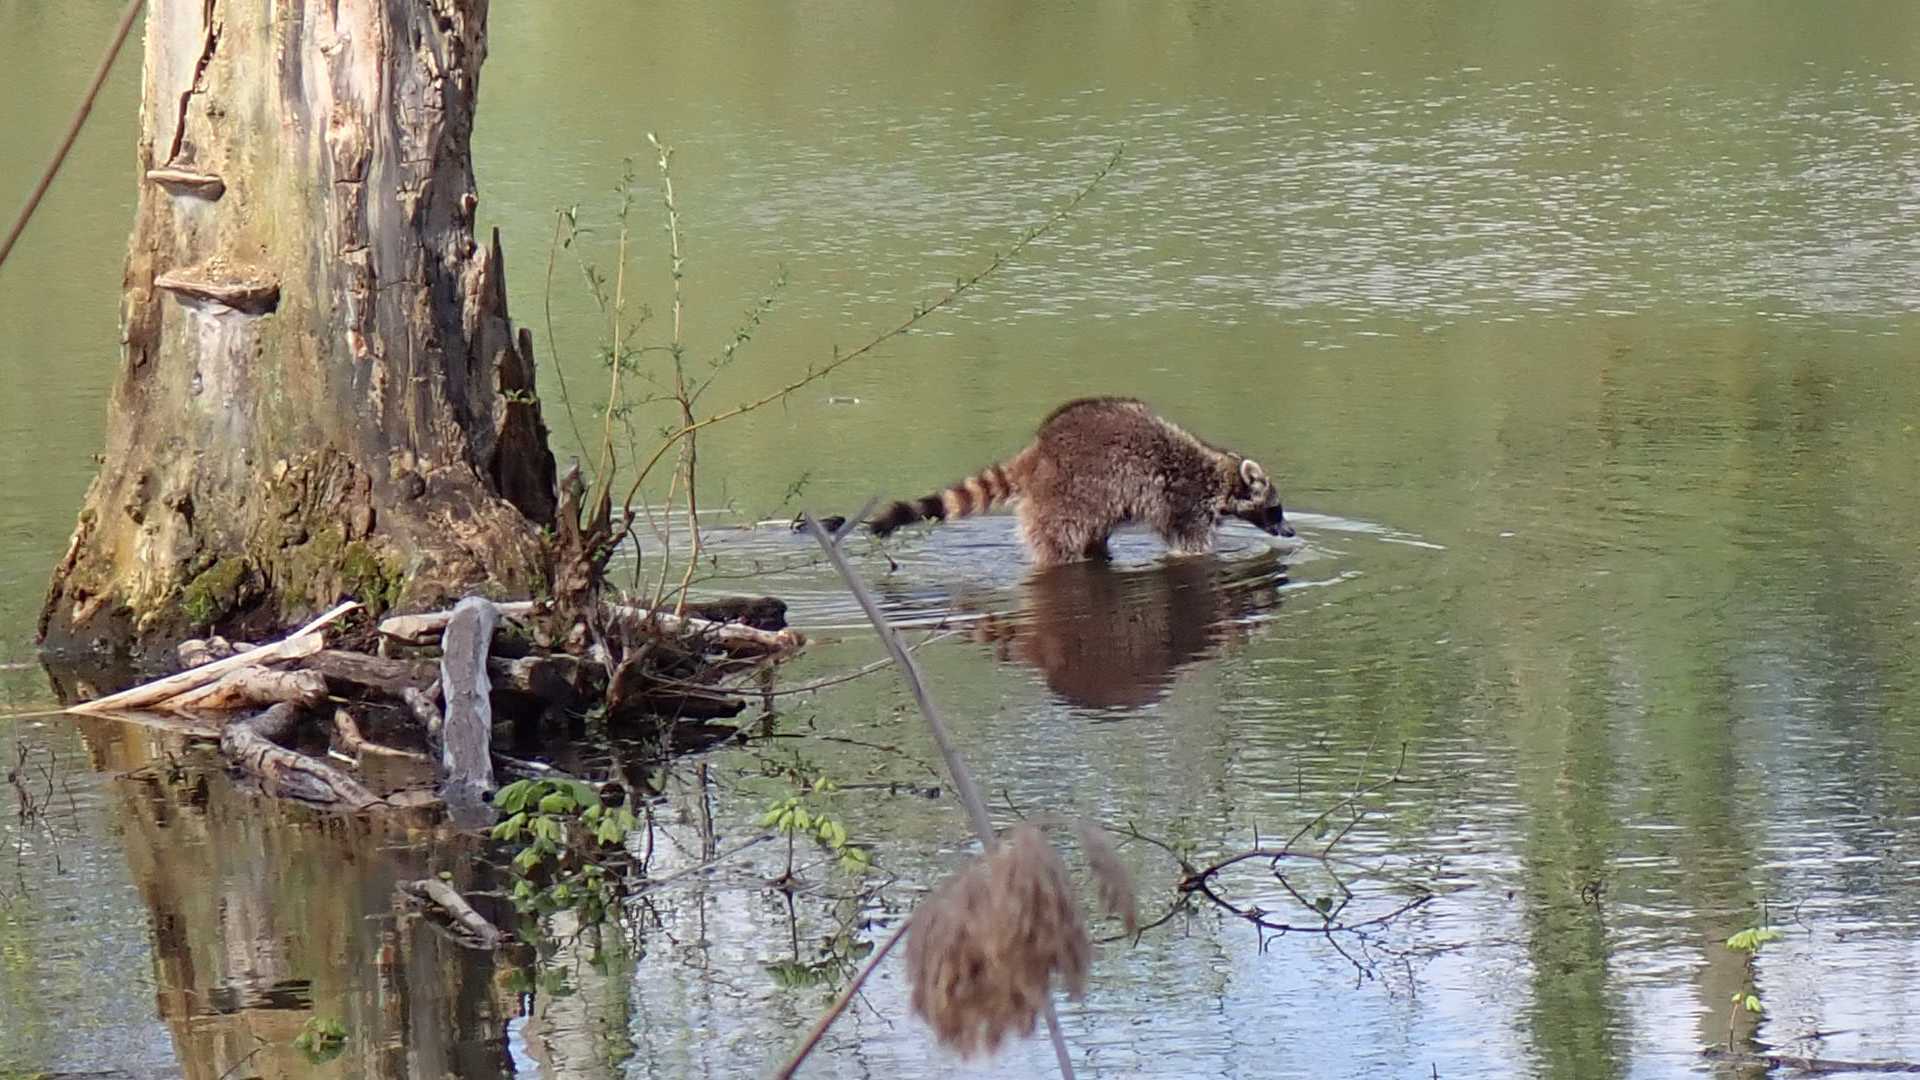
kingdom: Animalia
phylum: Chordata
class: Mammalia
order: Carnivora
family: Procyonidae
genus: Procyon
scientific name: Procyon lotor
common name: Raccoon
